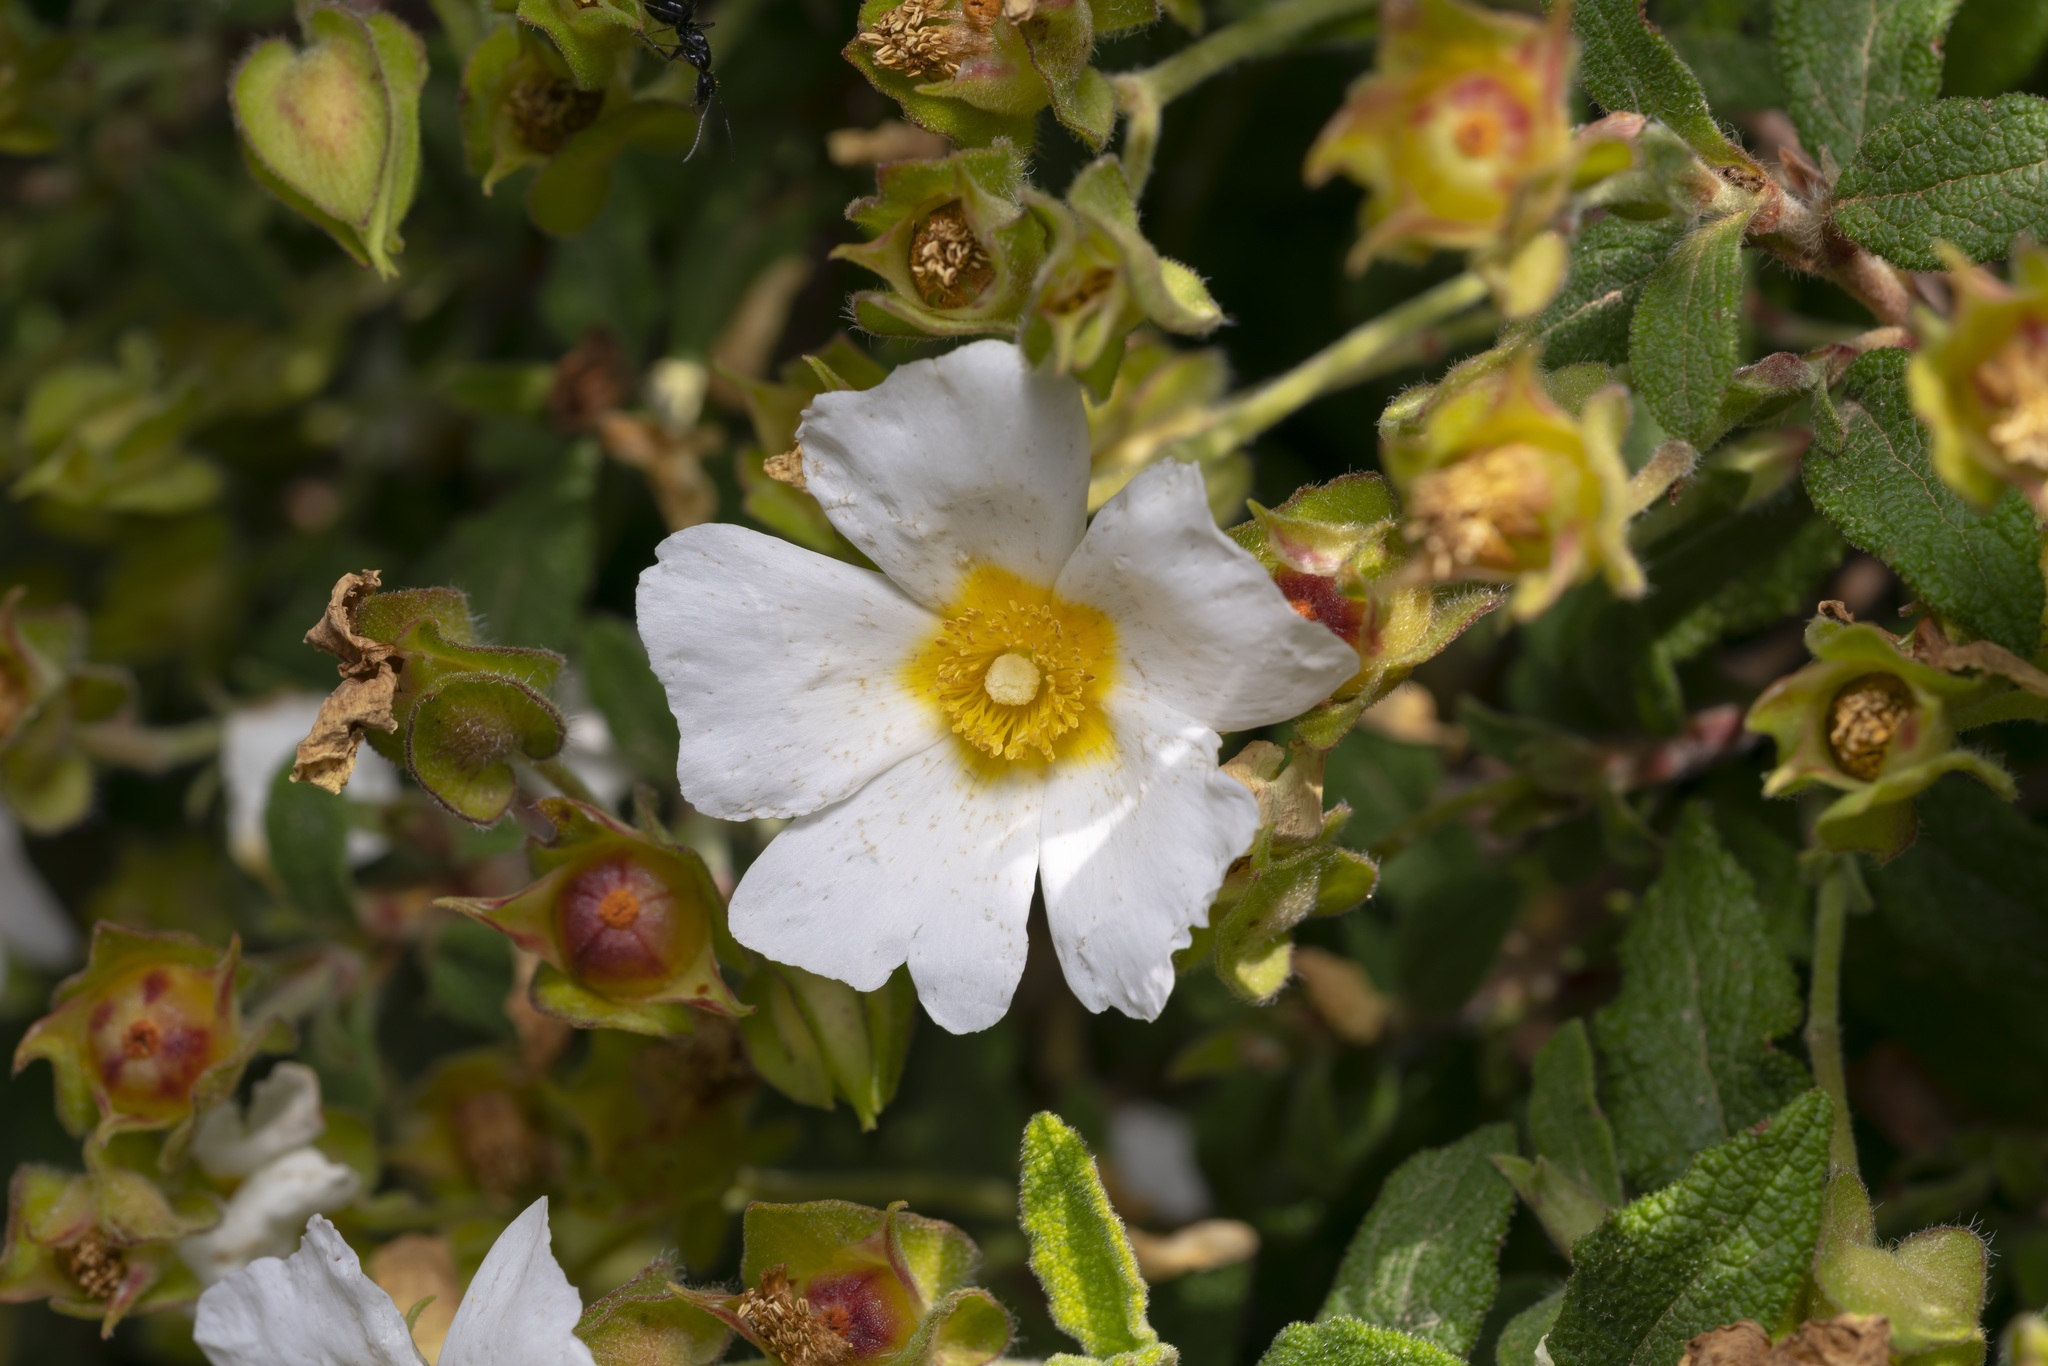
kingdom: Plantae
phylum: Tracheophyta
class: Magnoliopsida
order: Malvales
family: Cistaceae
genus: Cistus
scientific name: Cistus salviifolius
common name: Salvia cistus
